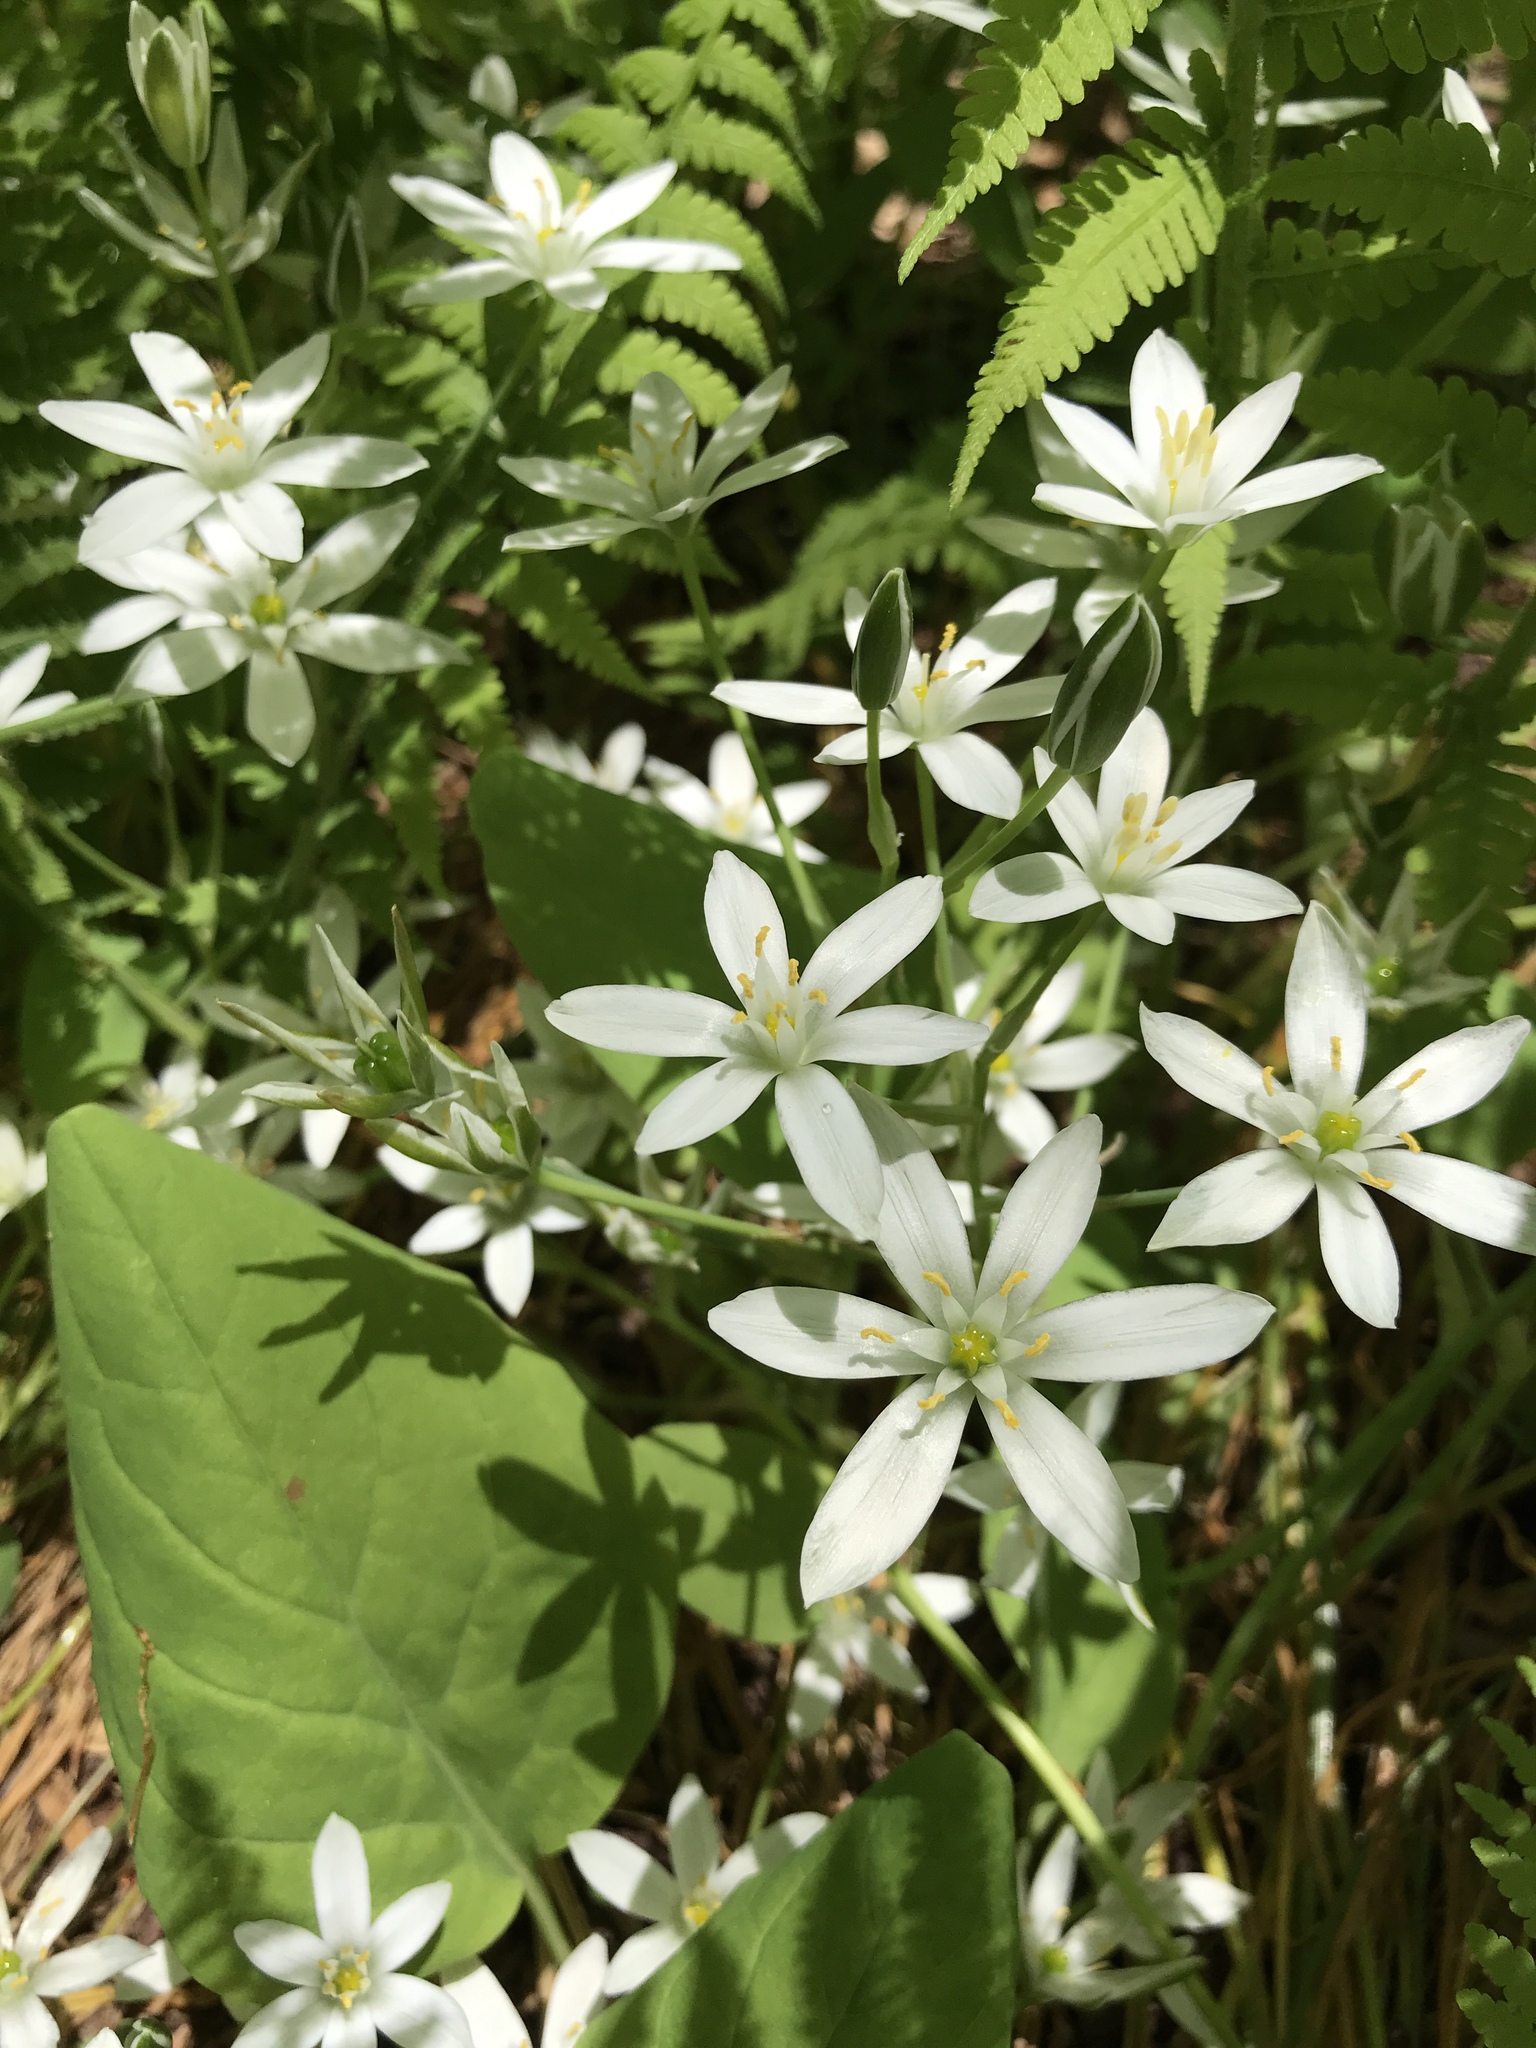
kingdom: Plantae
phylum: Tracheophyta
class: Liliopsida
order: Asparagales
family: Asparagaceae
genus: Ornithogalum
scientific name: Ornithogalum umbellatum
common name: Garden star-of-bethlehem
